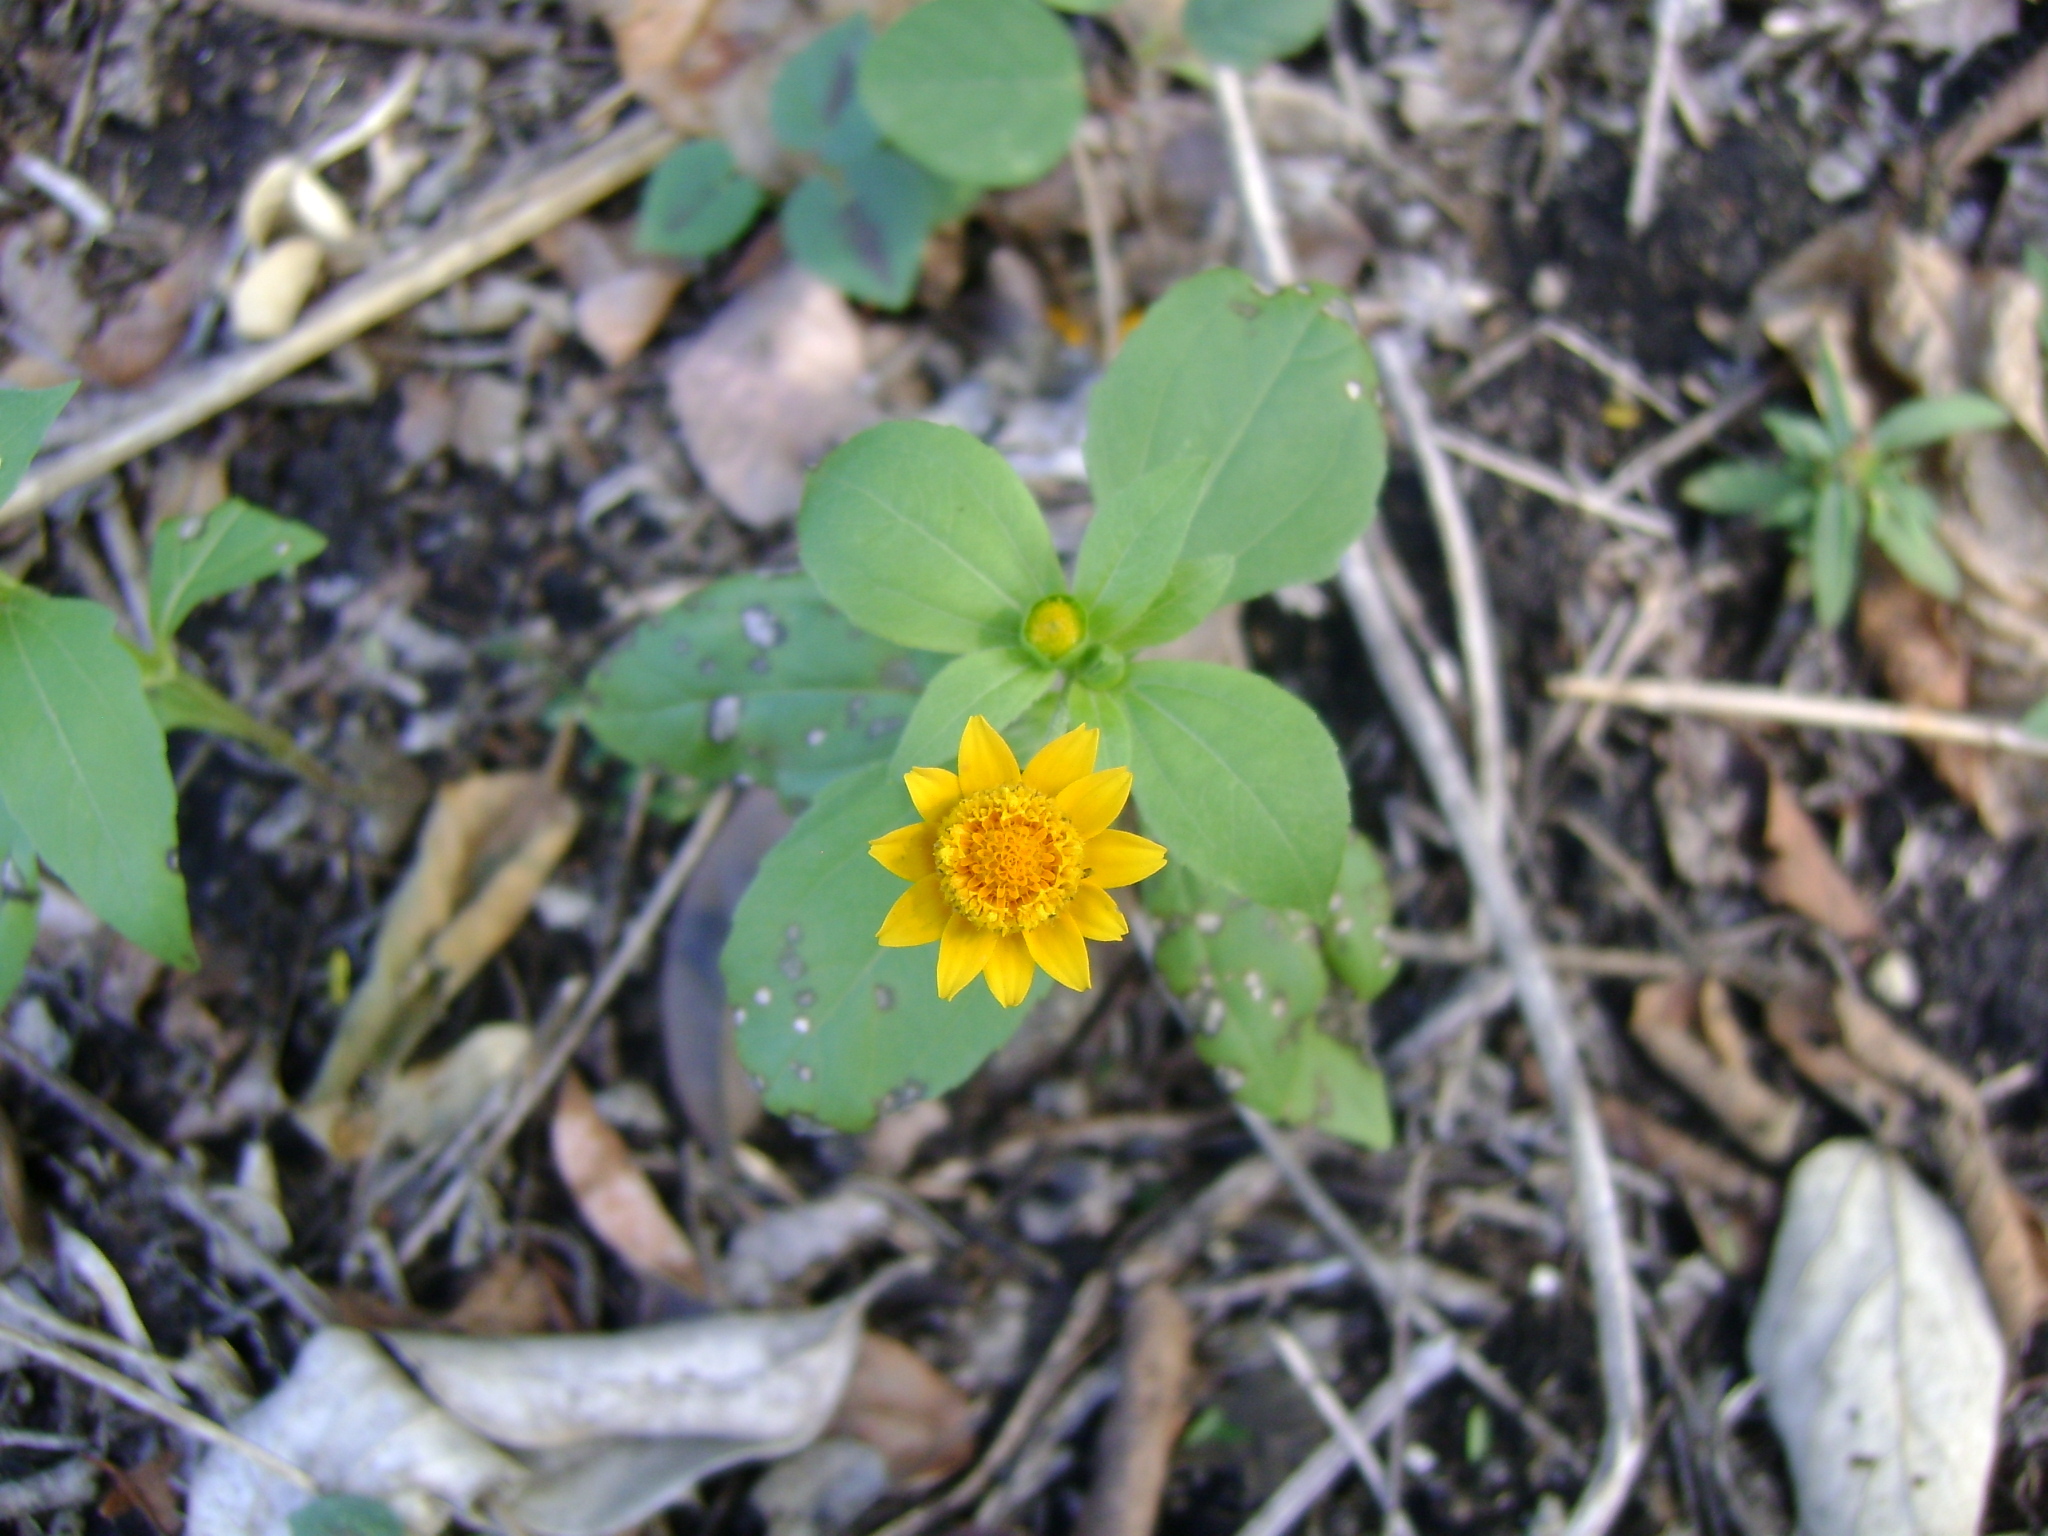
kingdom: Plantae
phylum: Tracheophyta
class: Magnoliopsida
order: Asterales
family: Asteraceae
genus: Melampodium
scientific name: Melampodium divaricatum
